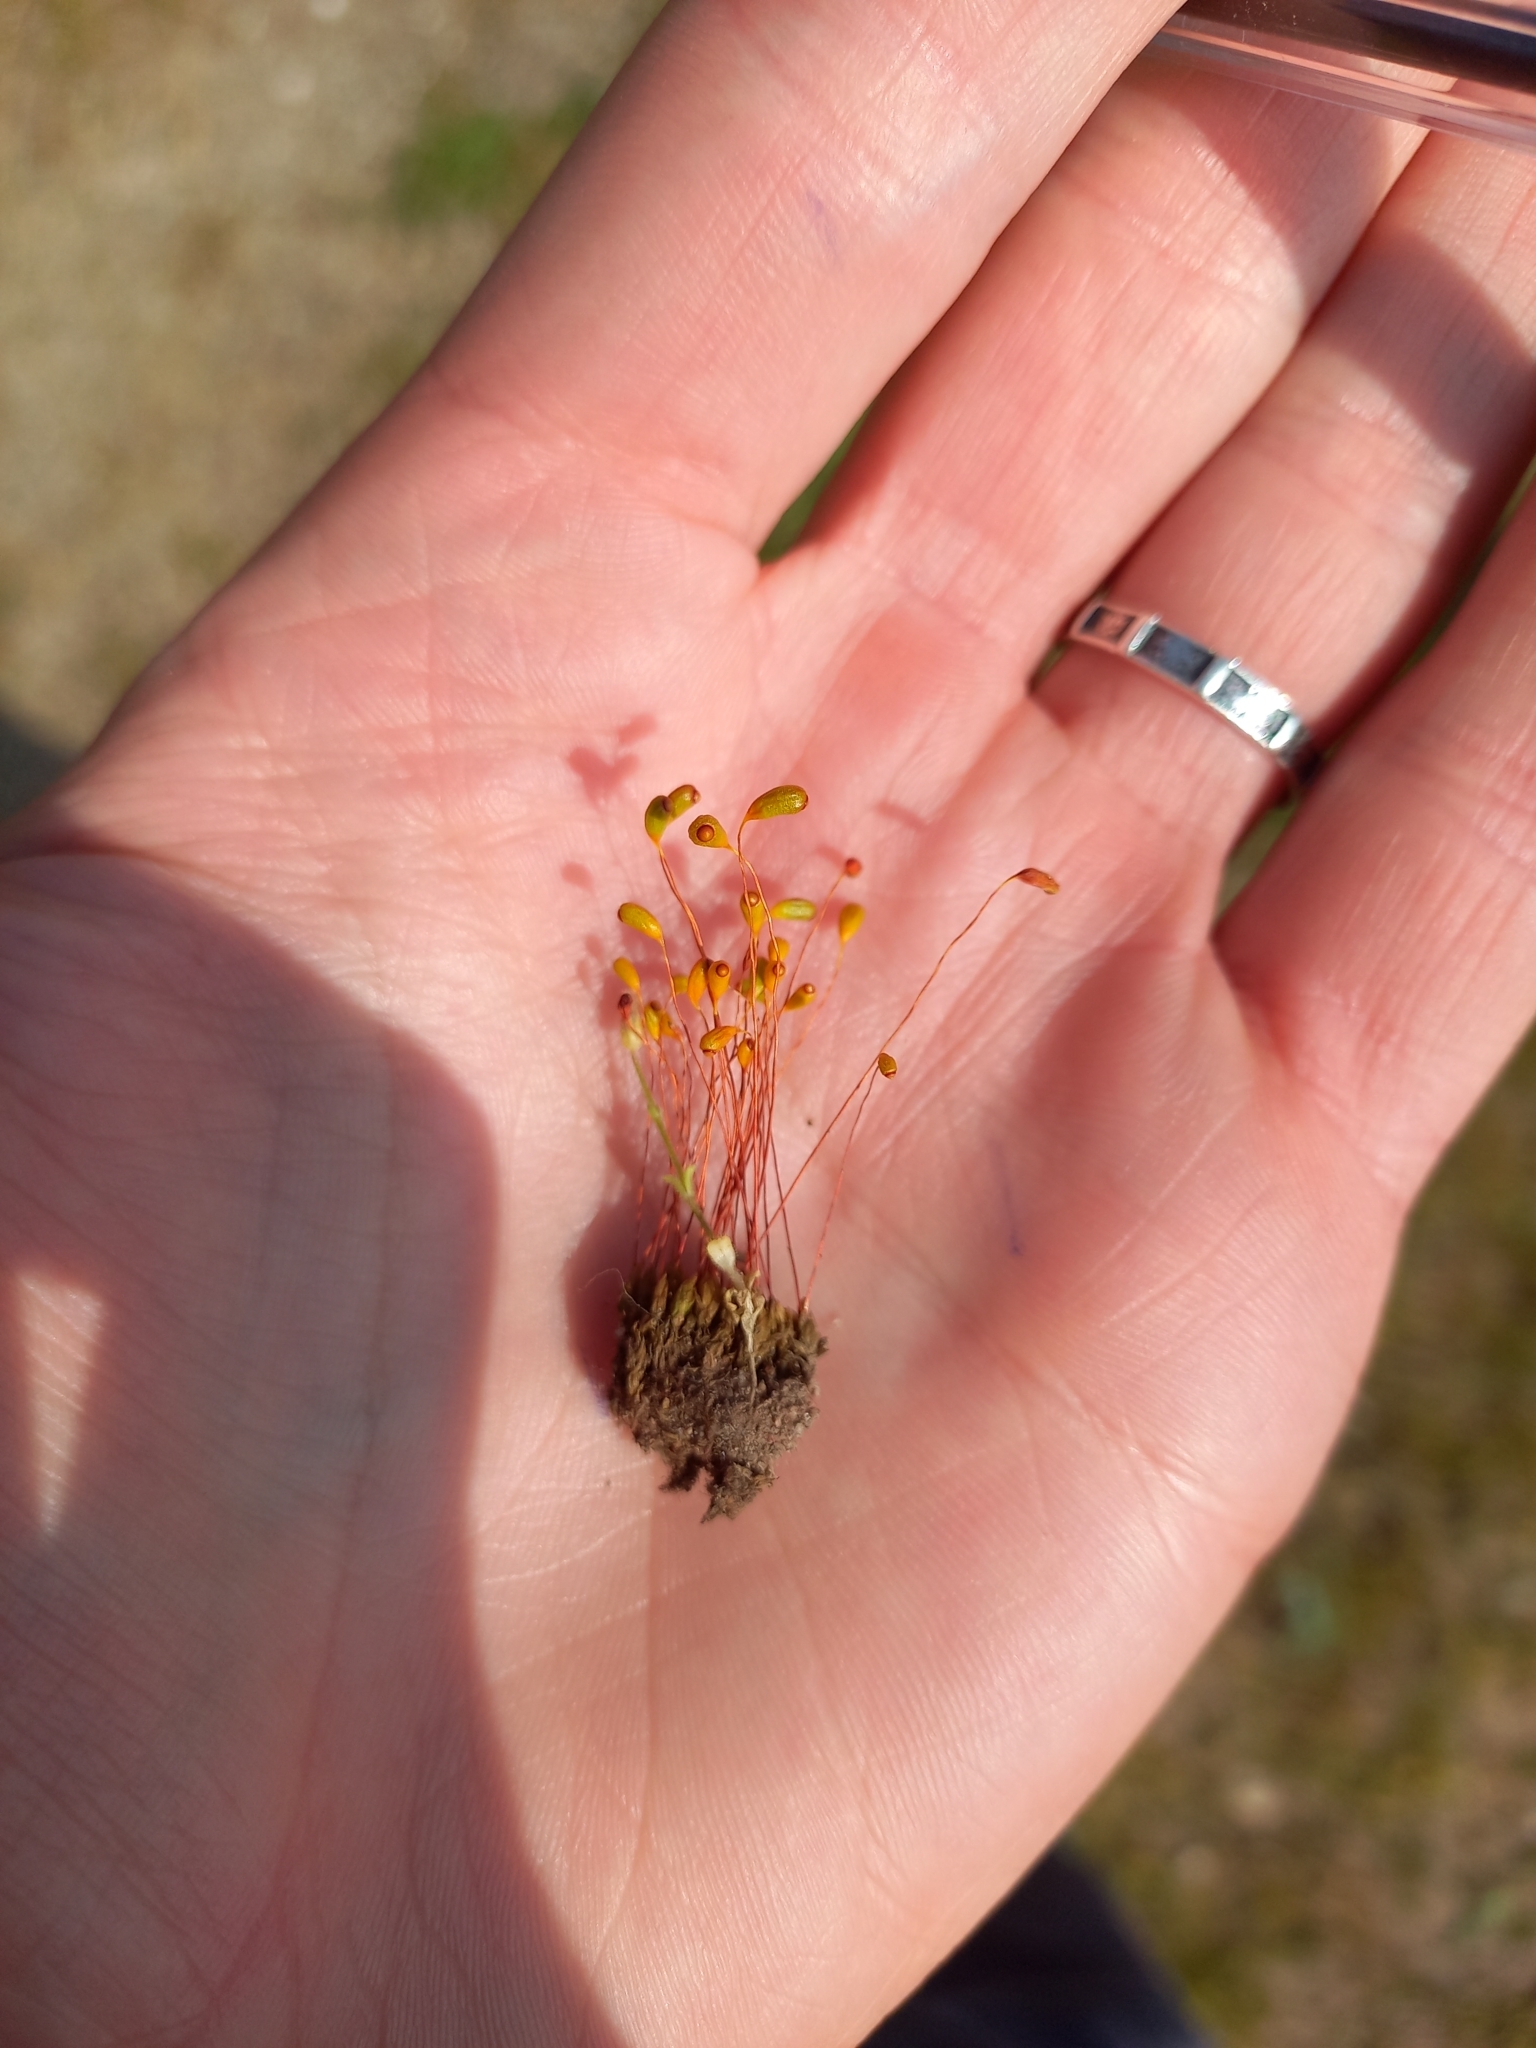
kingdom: Plantae
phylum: Bryophyta
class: Bryopsida
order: Funariales
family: Funariaceae
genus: Funaria
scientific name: Funaria hygrometrica
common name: Common cord moss
